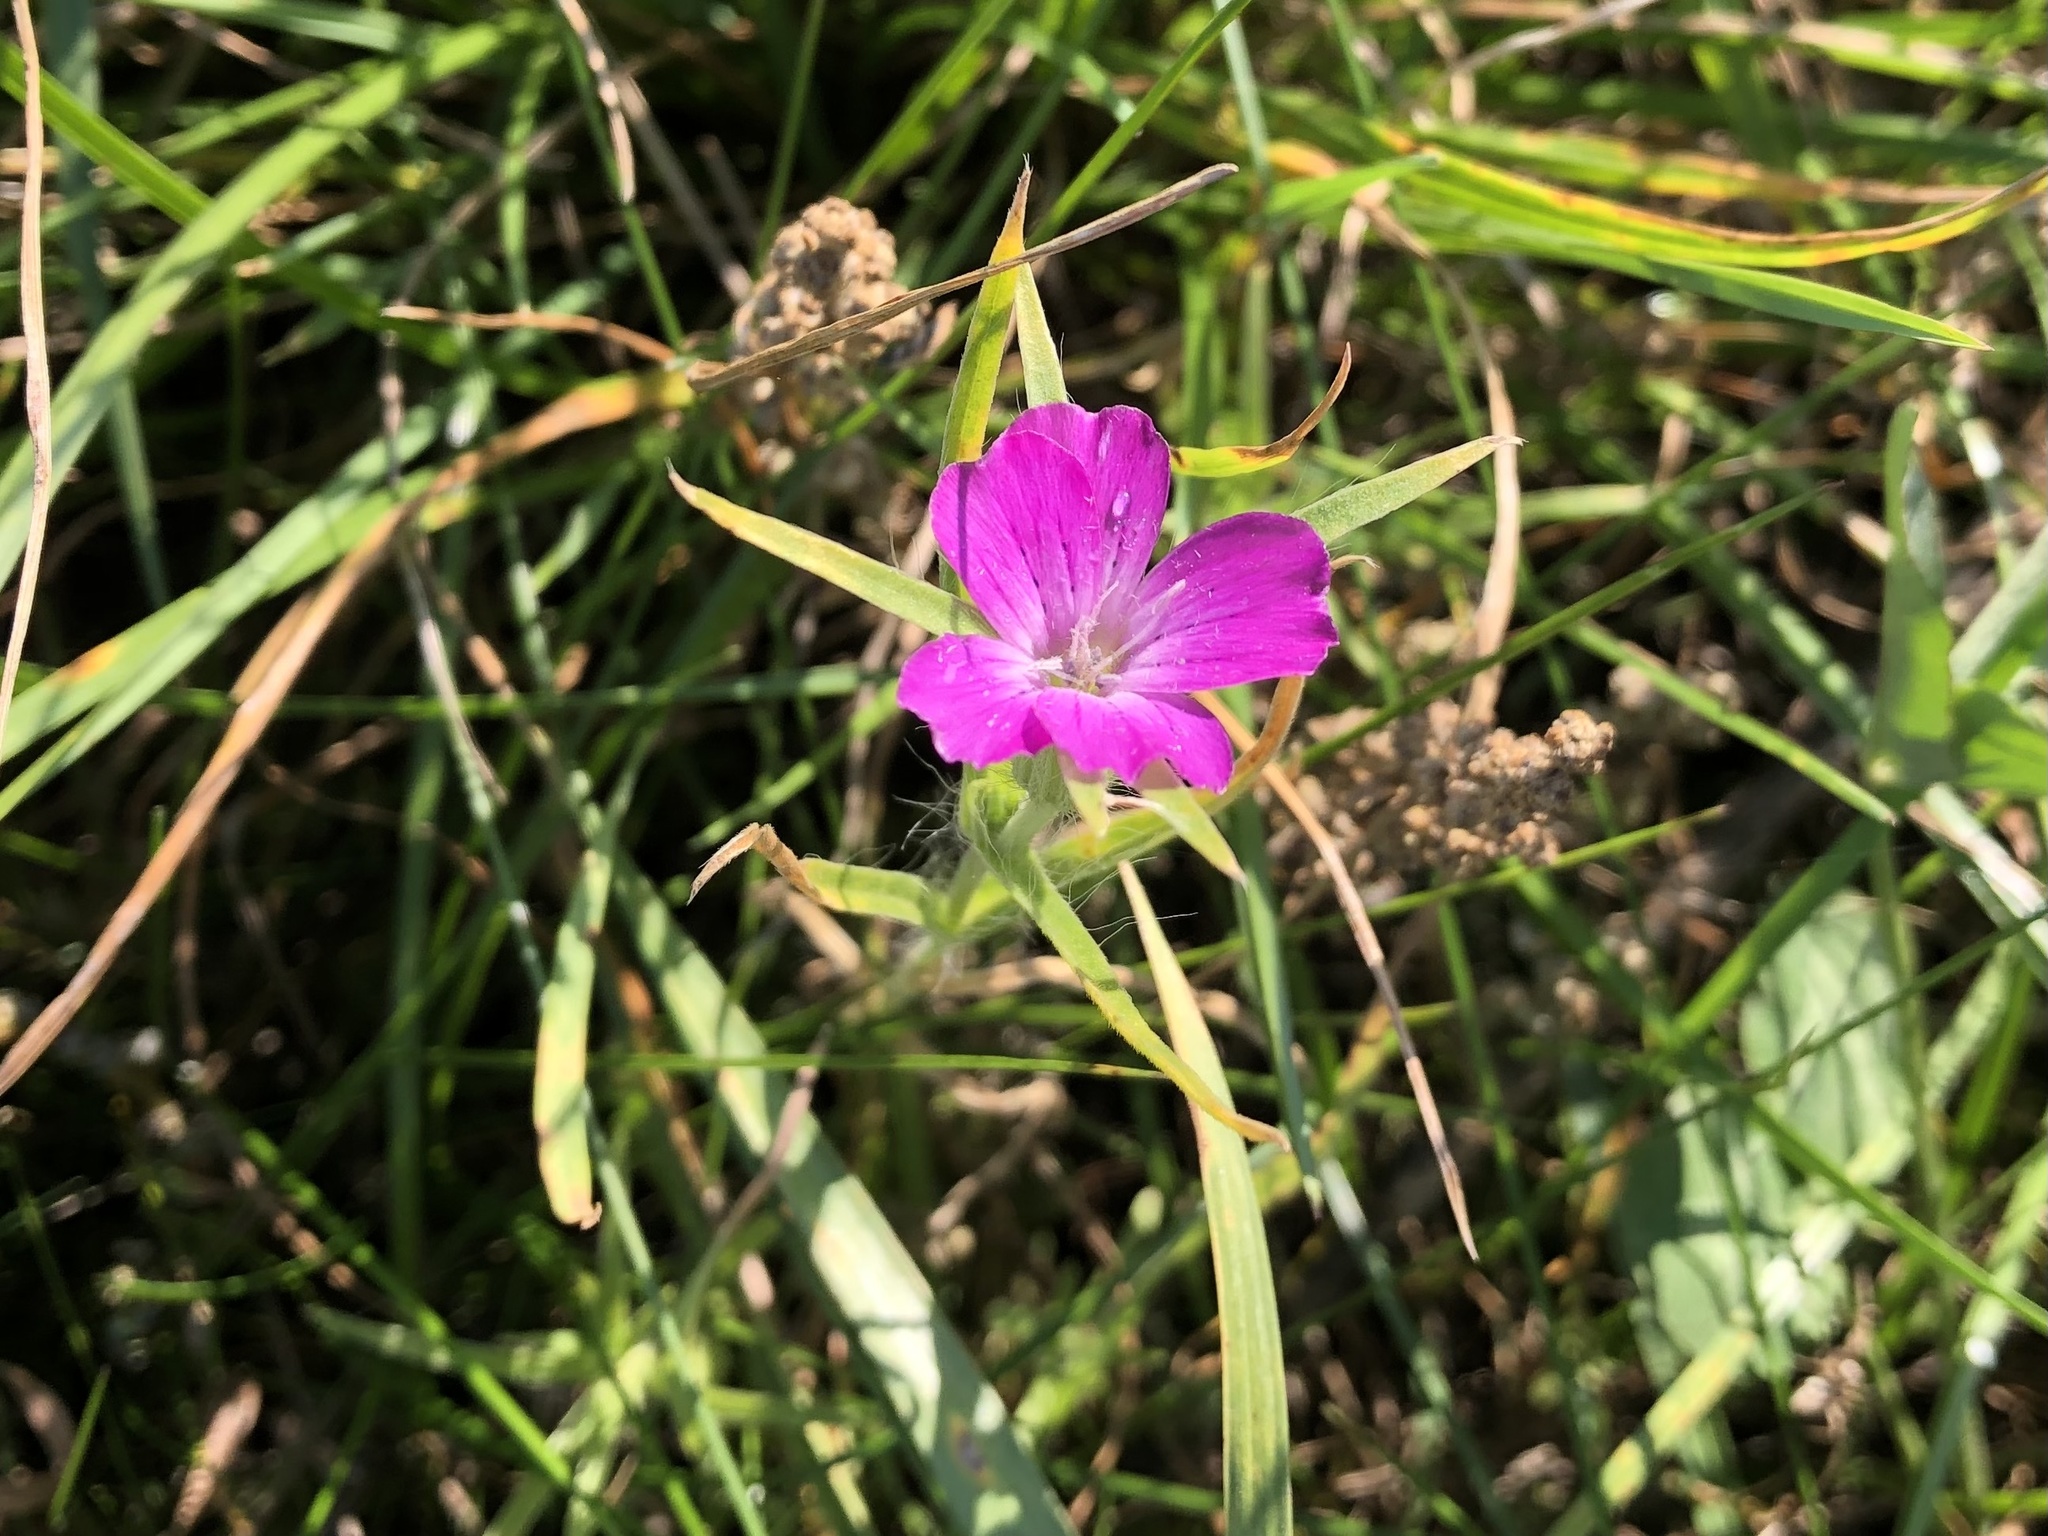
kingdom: Plantae
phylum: Tracheophyta
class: Magnoliopsida
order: Caryophyllales
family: Caryophyllaceae
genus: Agrostemma
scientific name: Agrostemma githago
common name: Common corncockle
